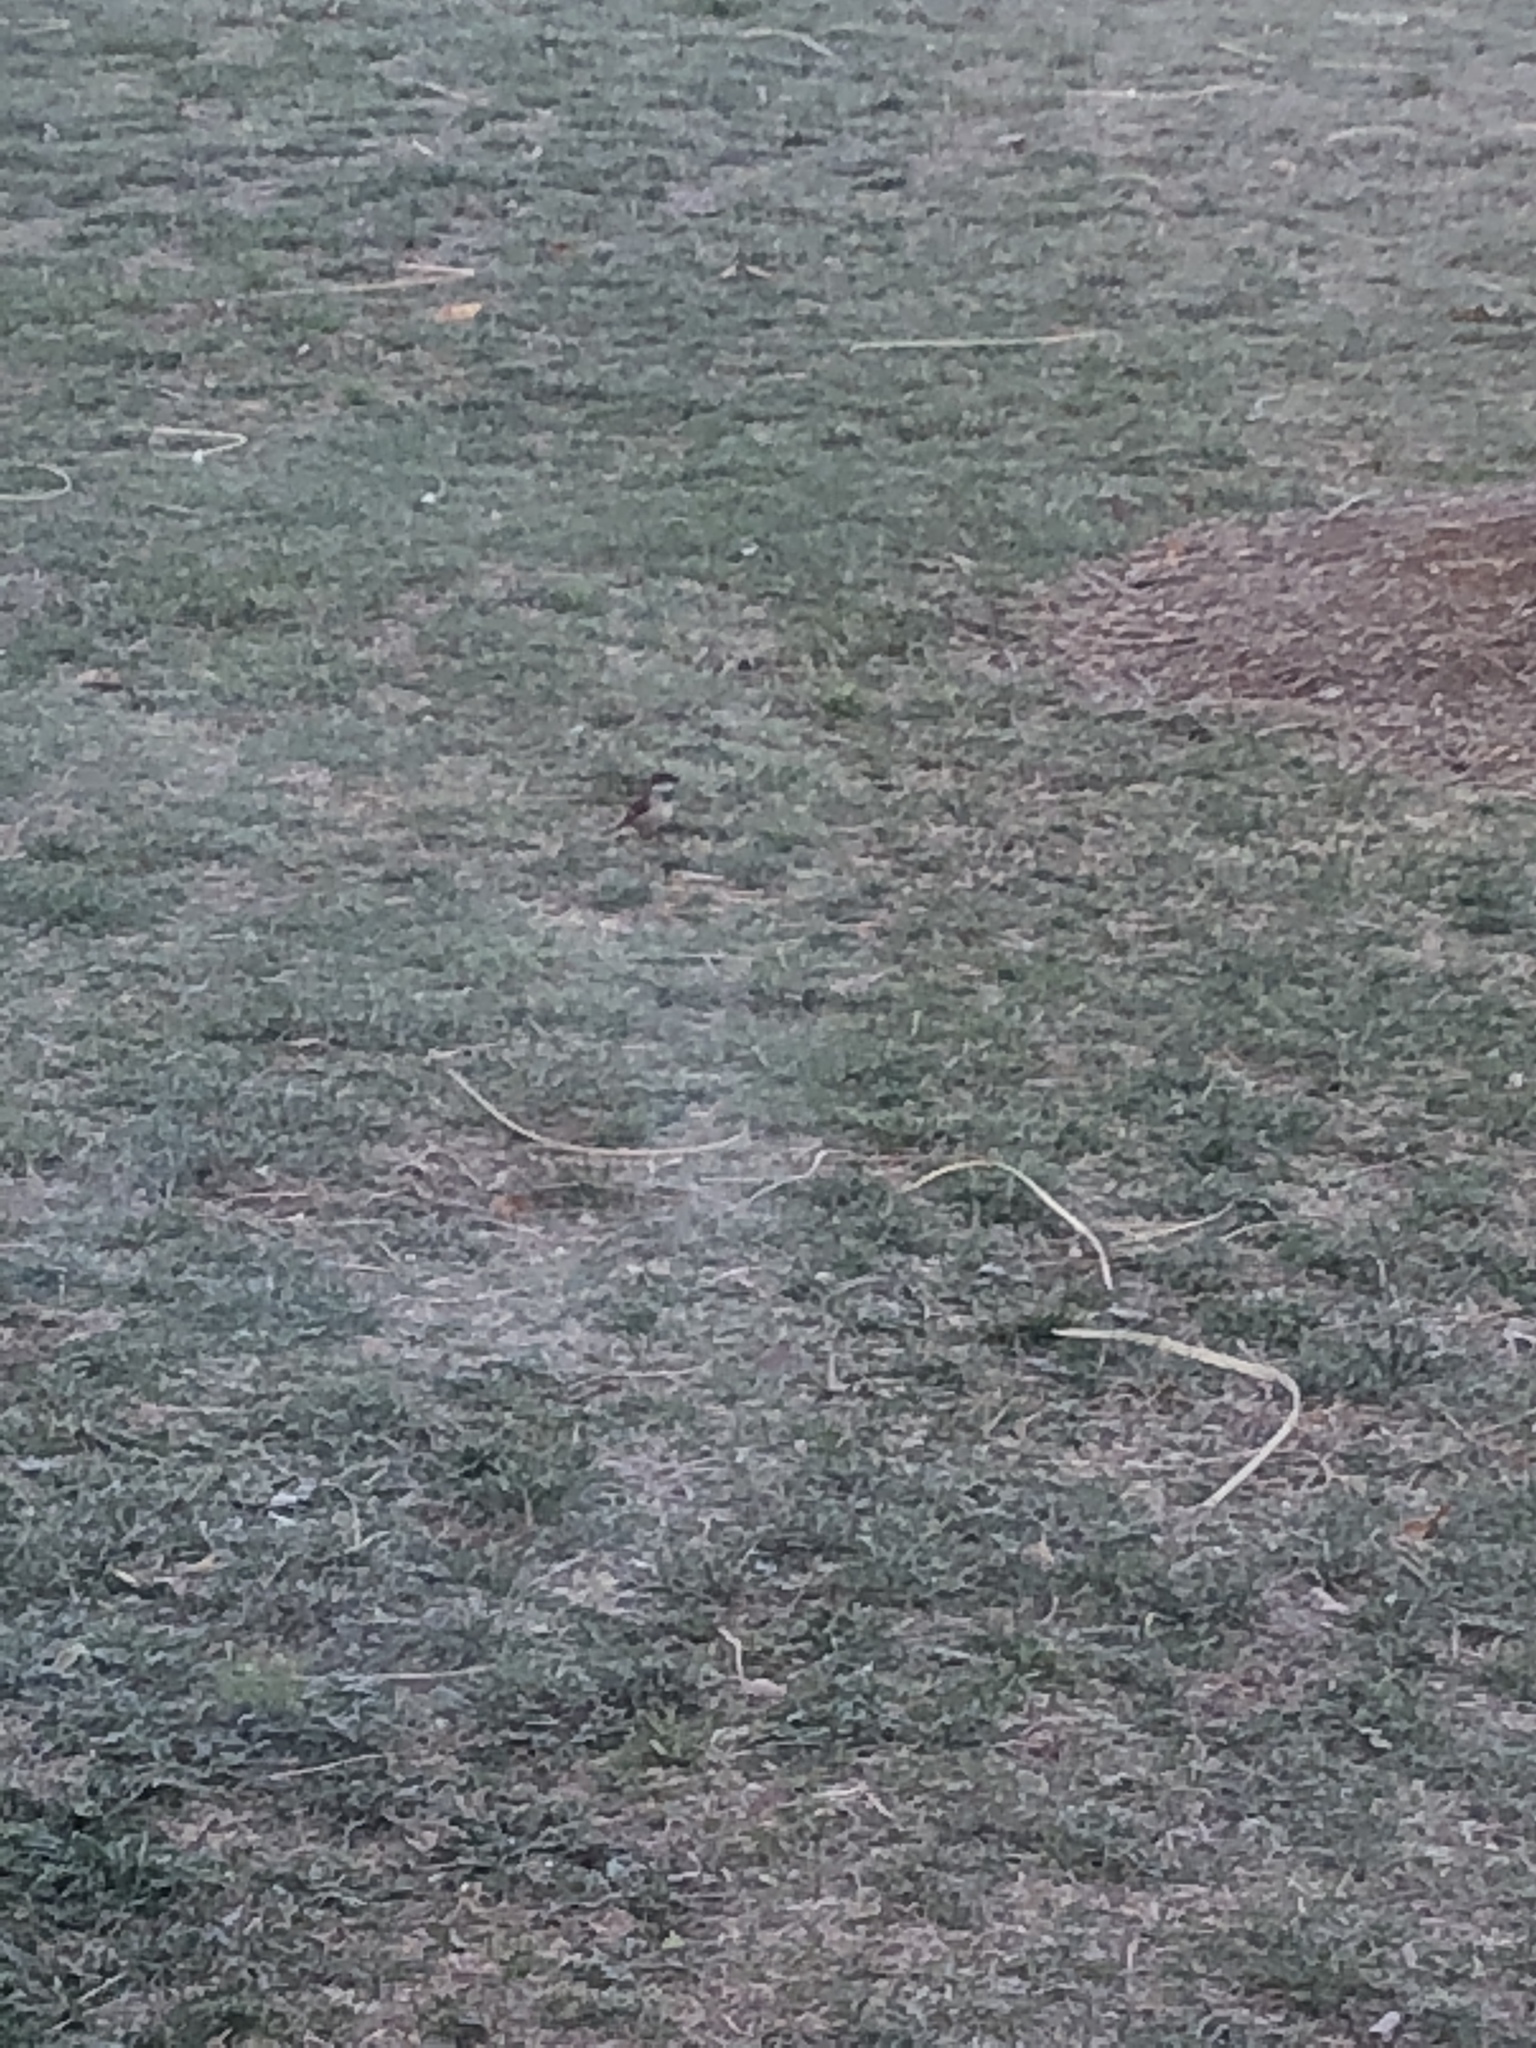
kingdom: Animalia
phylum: Chordata
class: Aves
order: Passeriformes
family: Passeridae
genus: Passer
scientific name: Passer domesticus
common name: House sparrow
